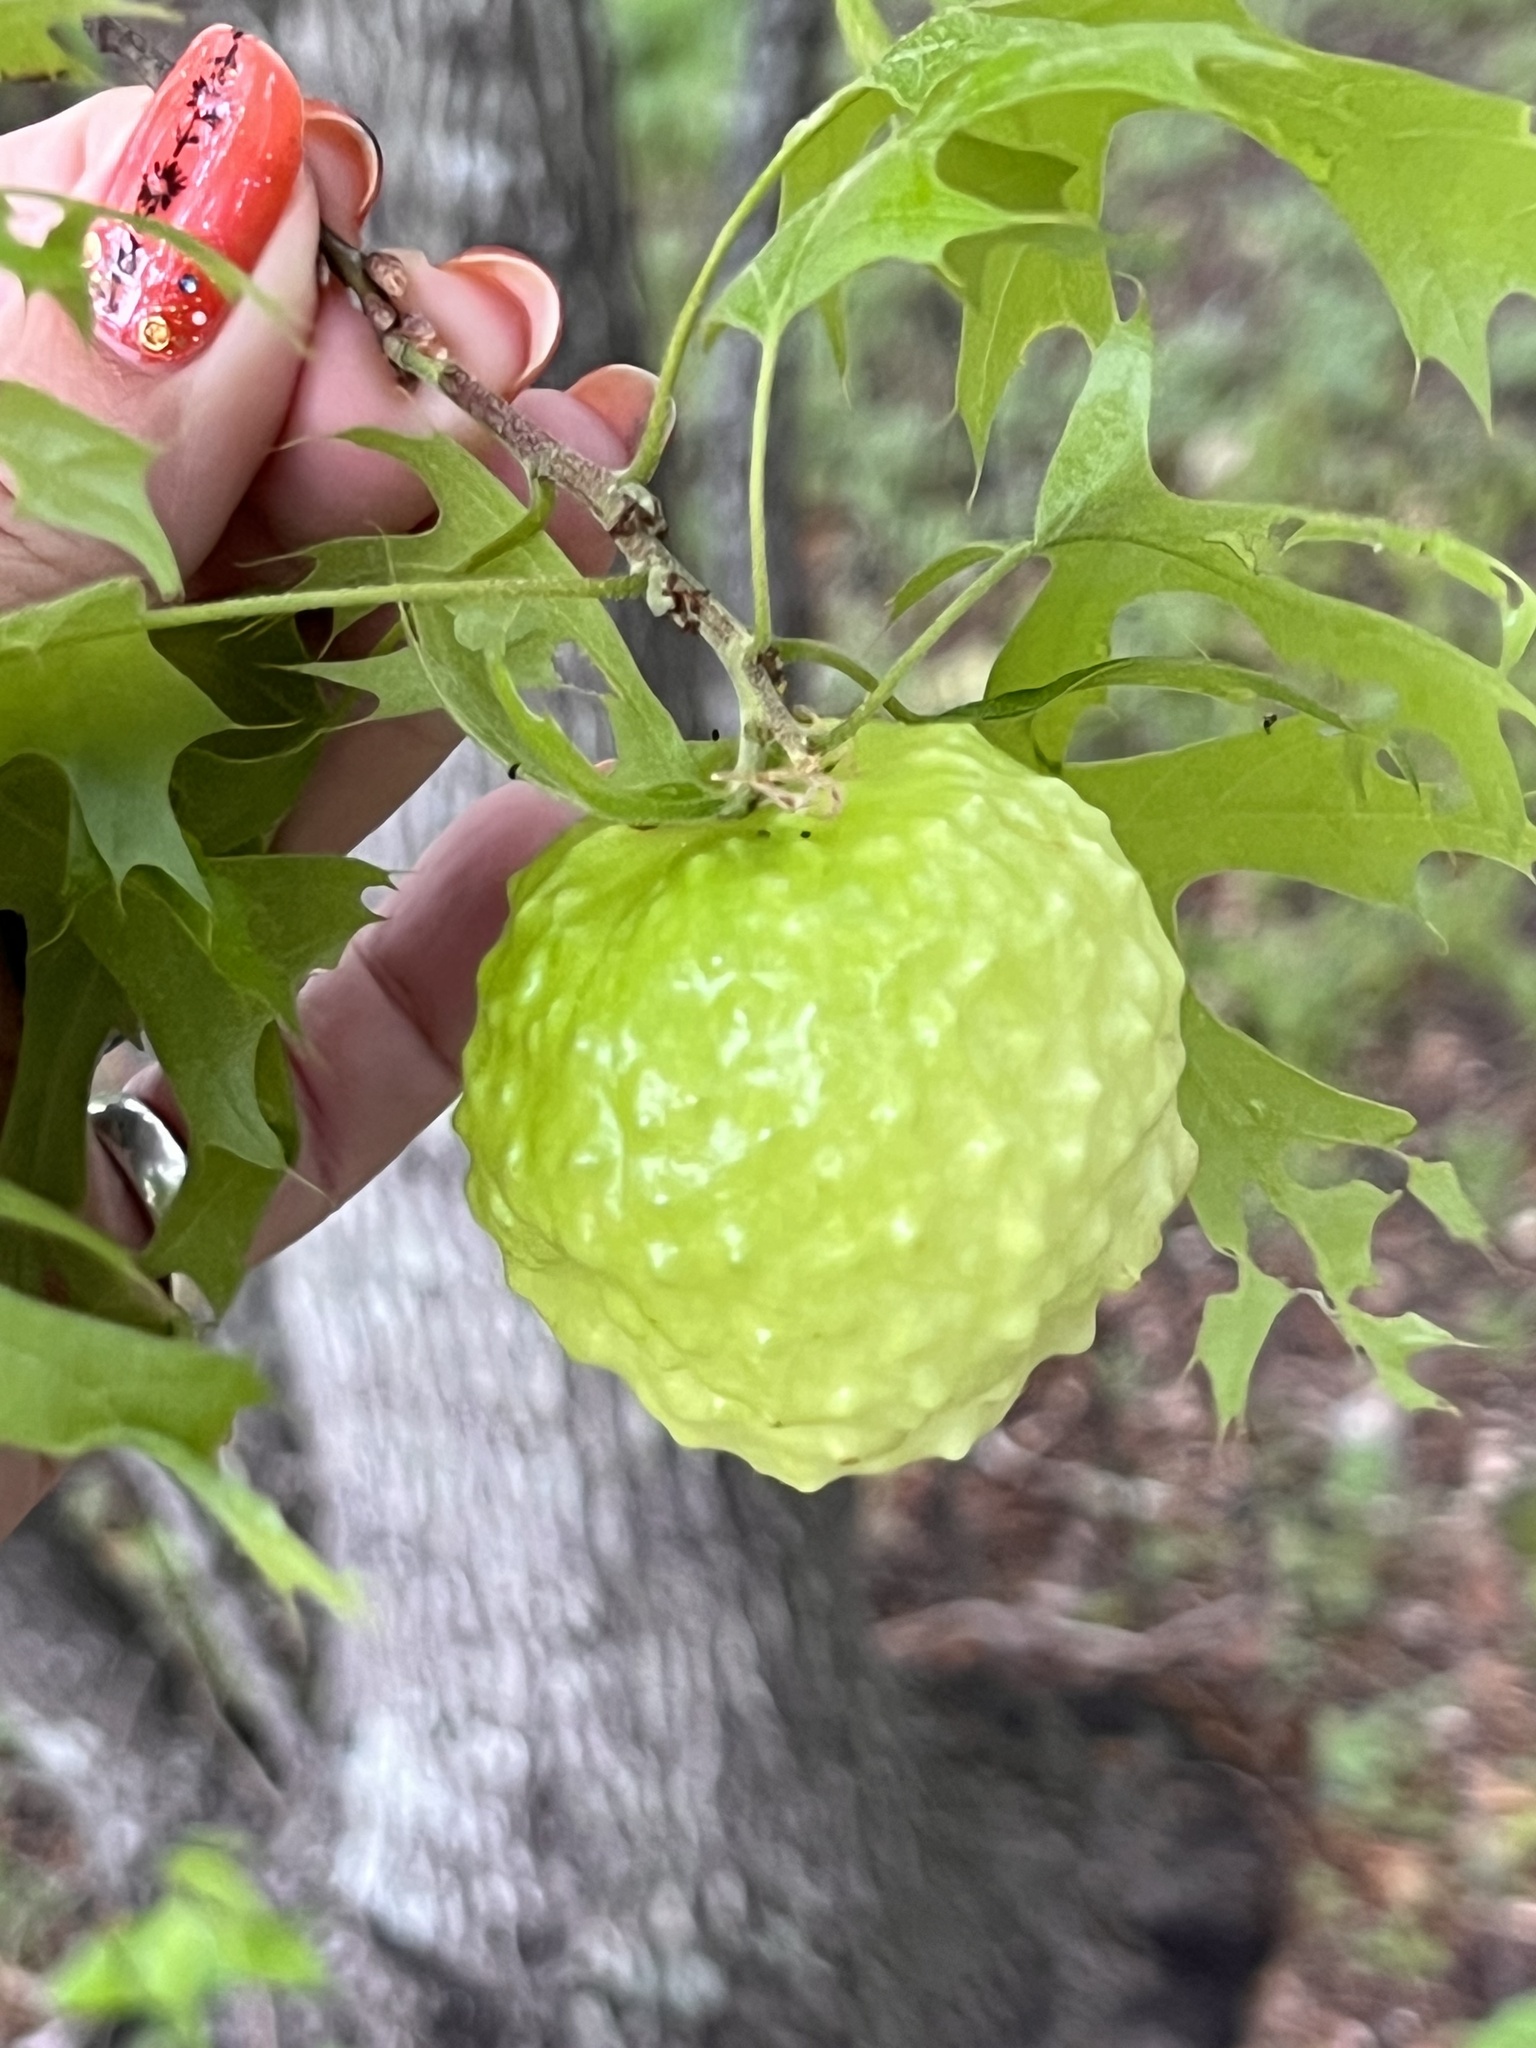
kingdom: Animalia
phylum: Arthropoda
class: Insecta
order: Hymenoptera
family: Cynipidae
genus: Amphibolips
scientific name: Amphibolips
